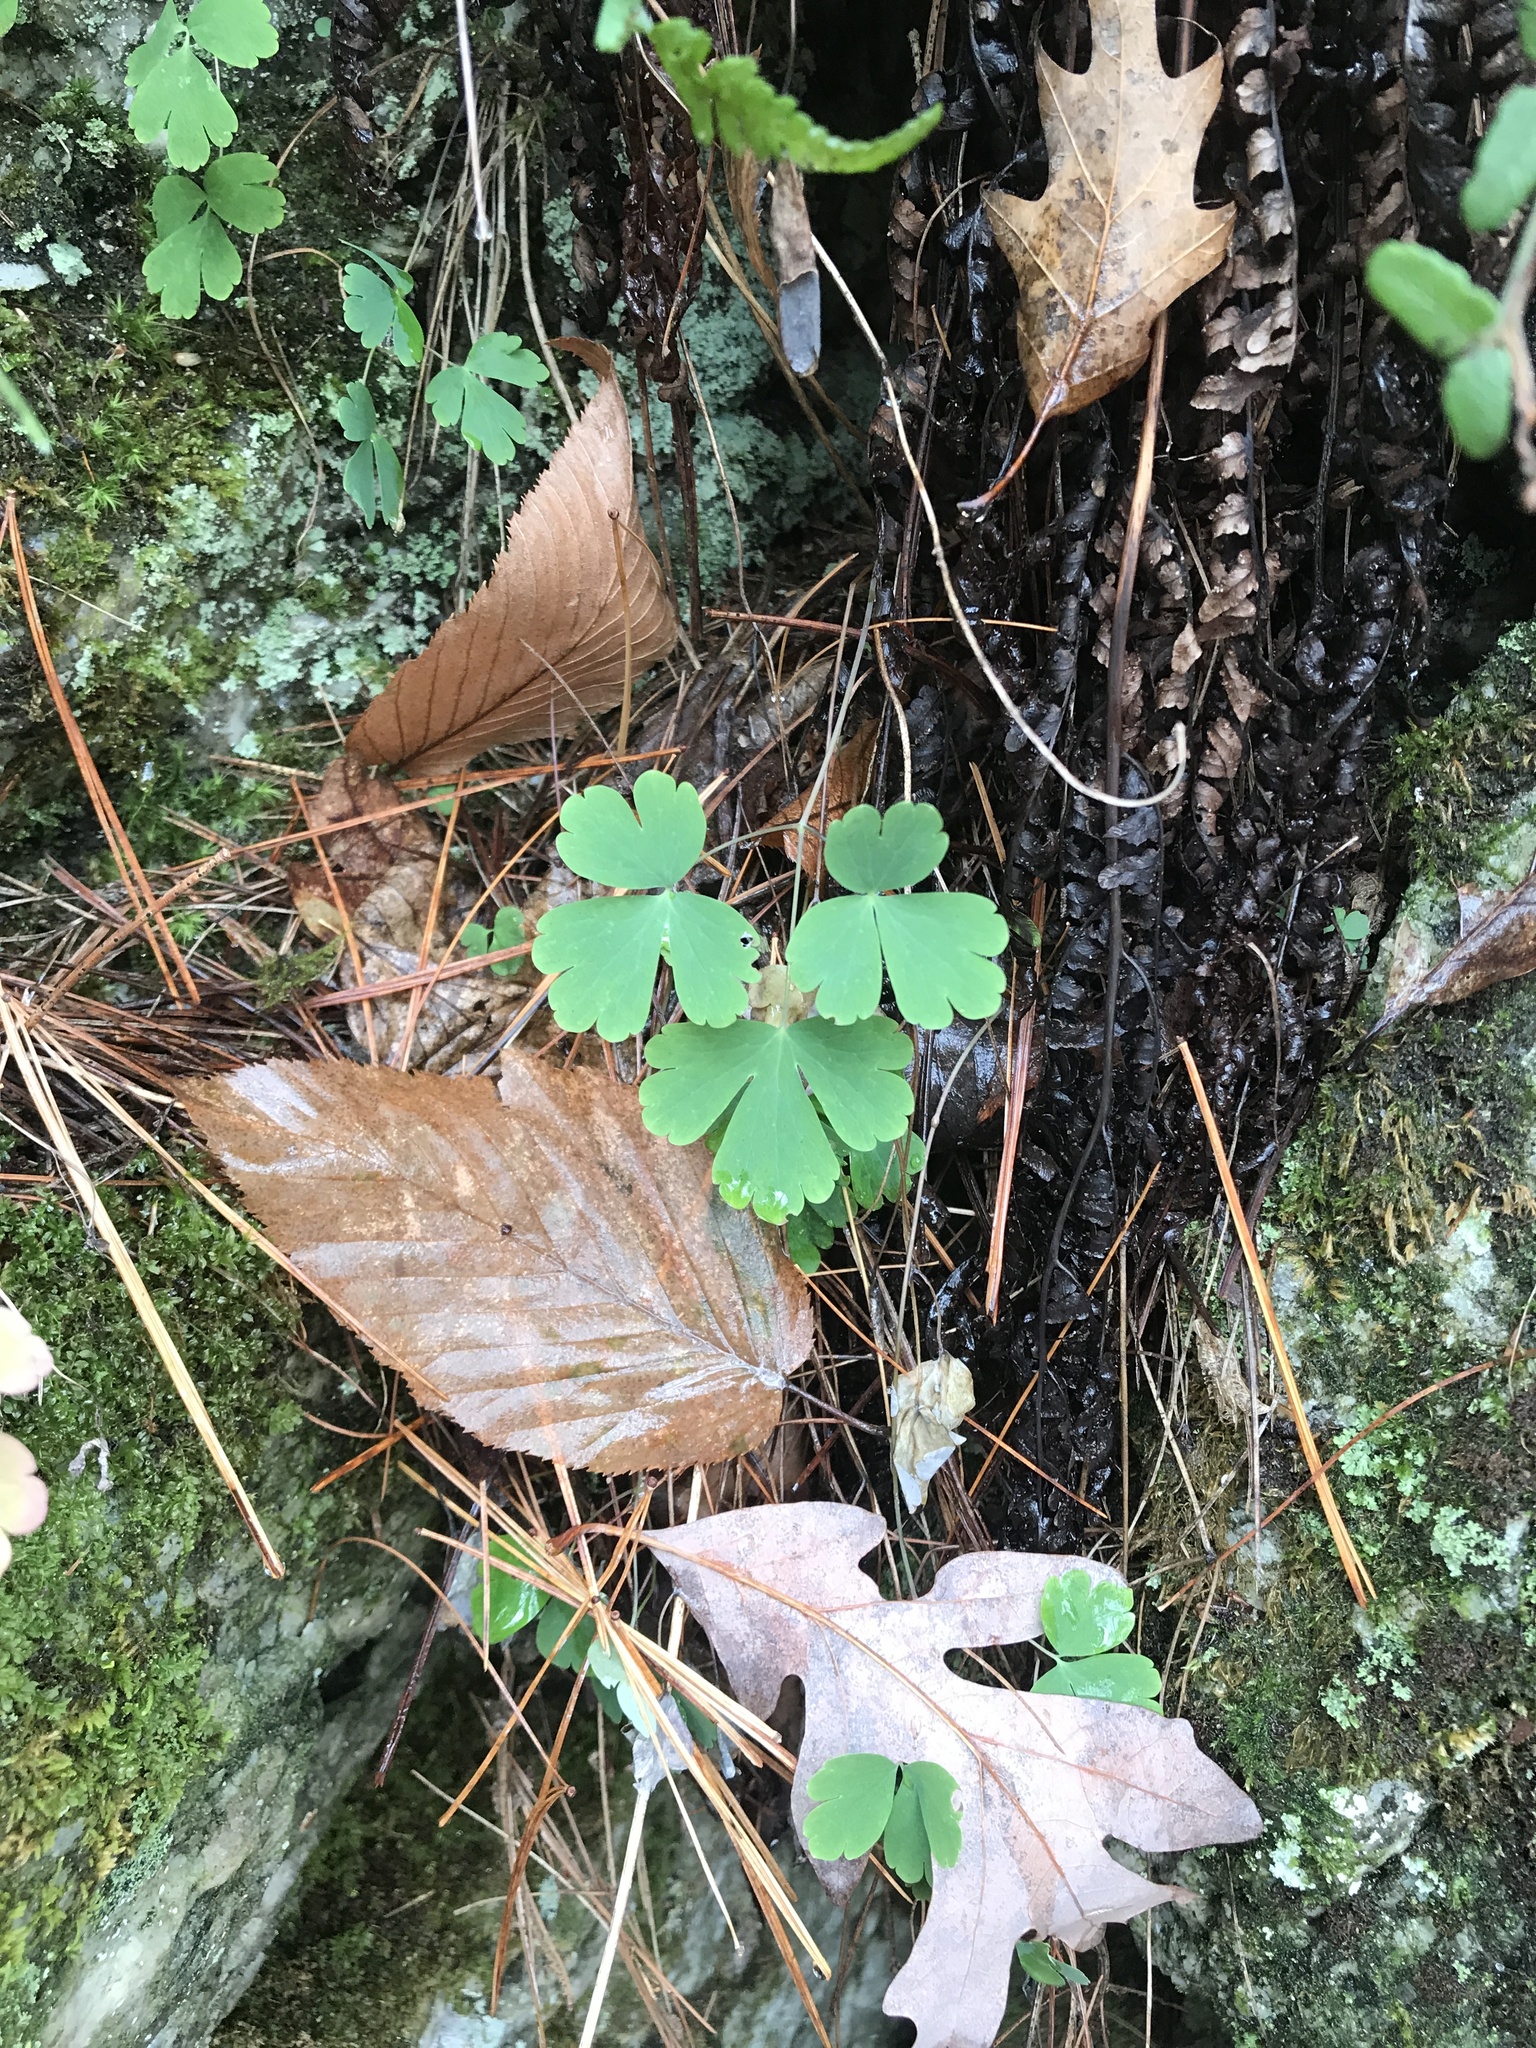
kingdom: Plantae
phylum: Tracheophyta
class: Magnoliopsida
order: Ranunculales
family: Ranunculaceae
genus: Aquilegia
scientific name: Aquilegia canadensis
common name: American columbine
